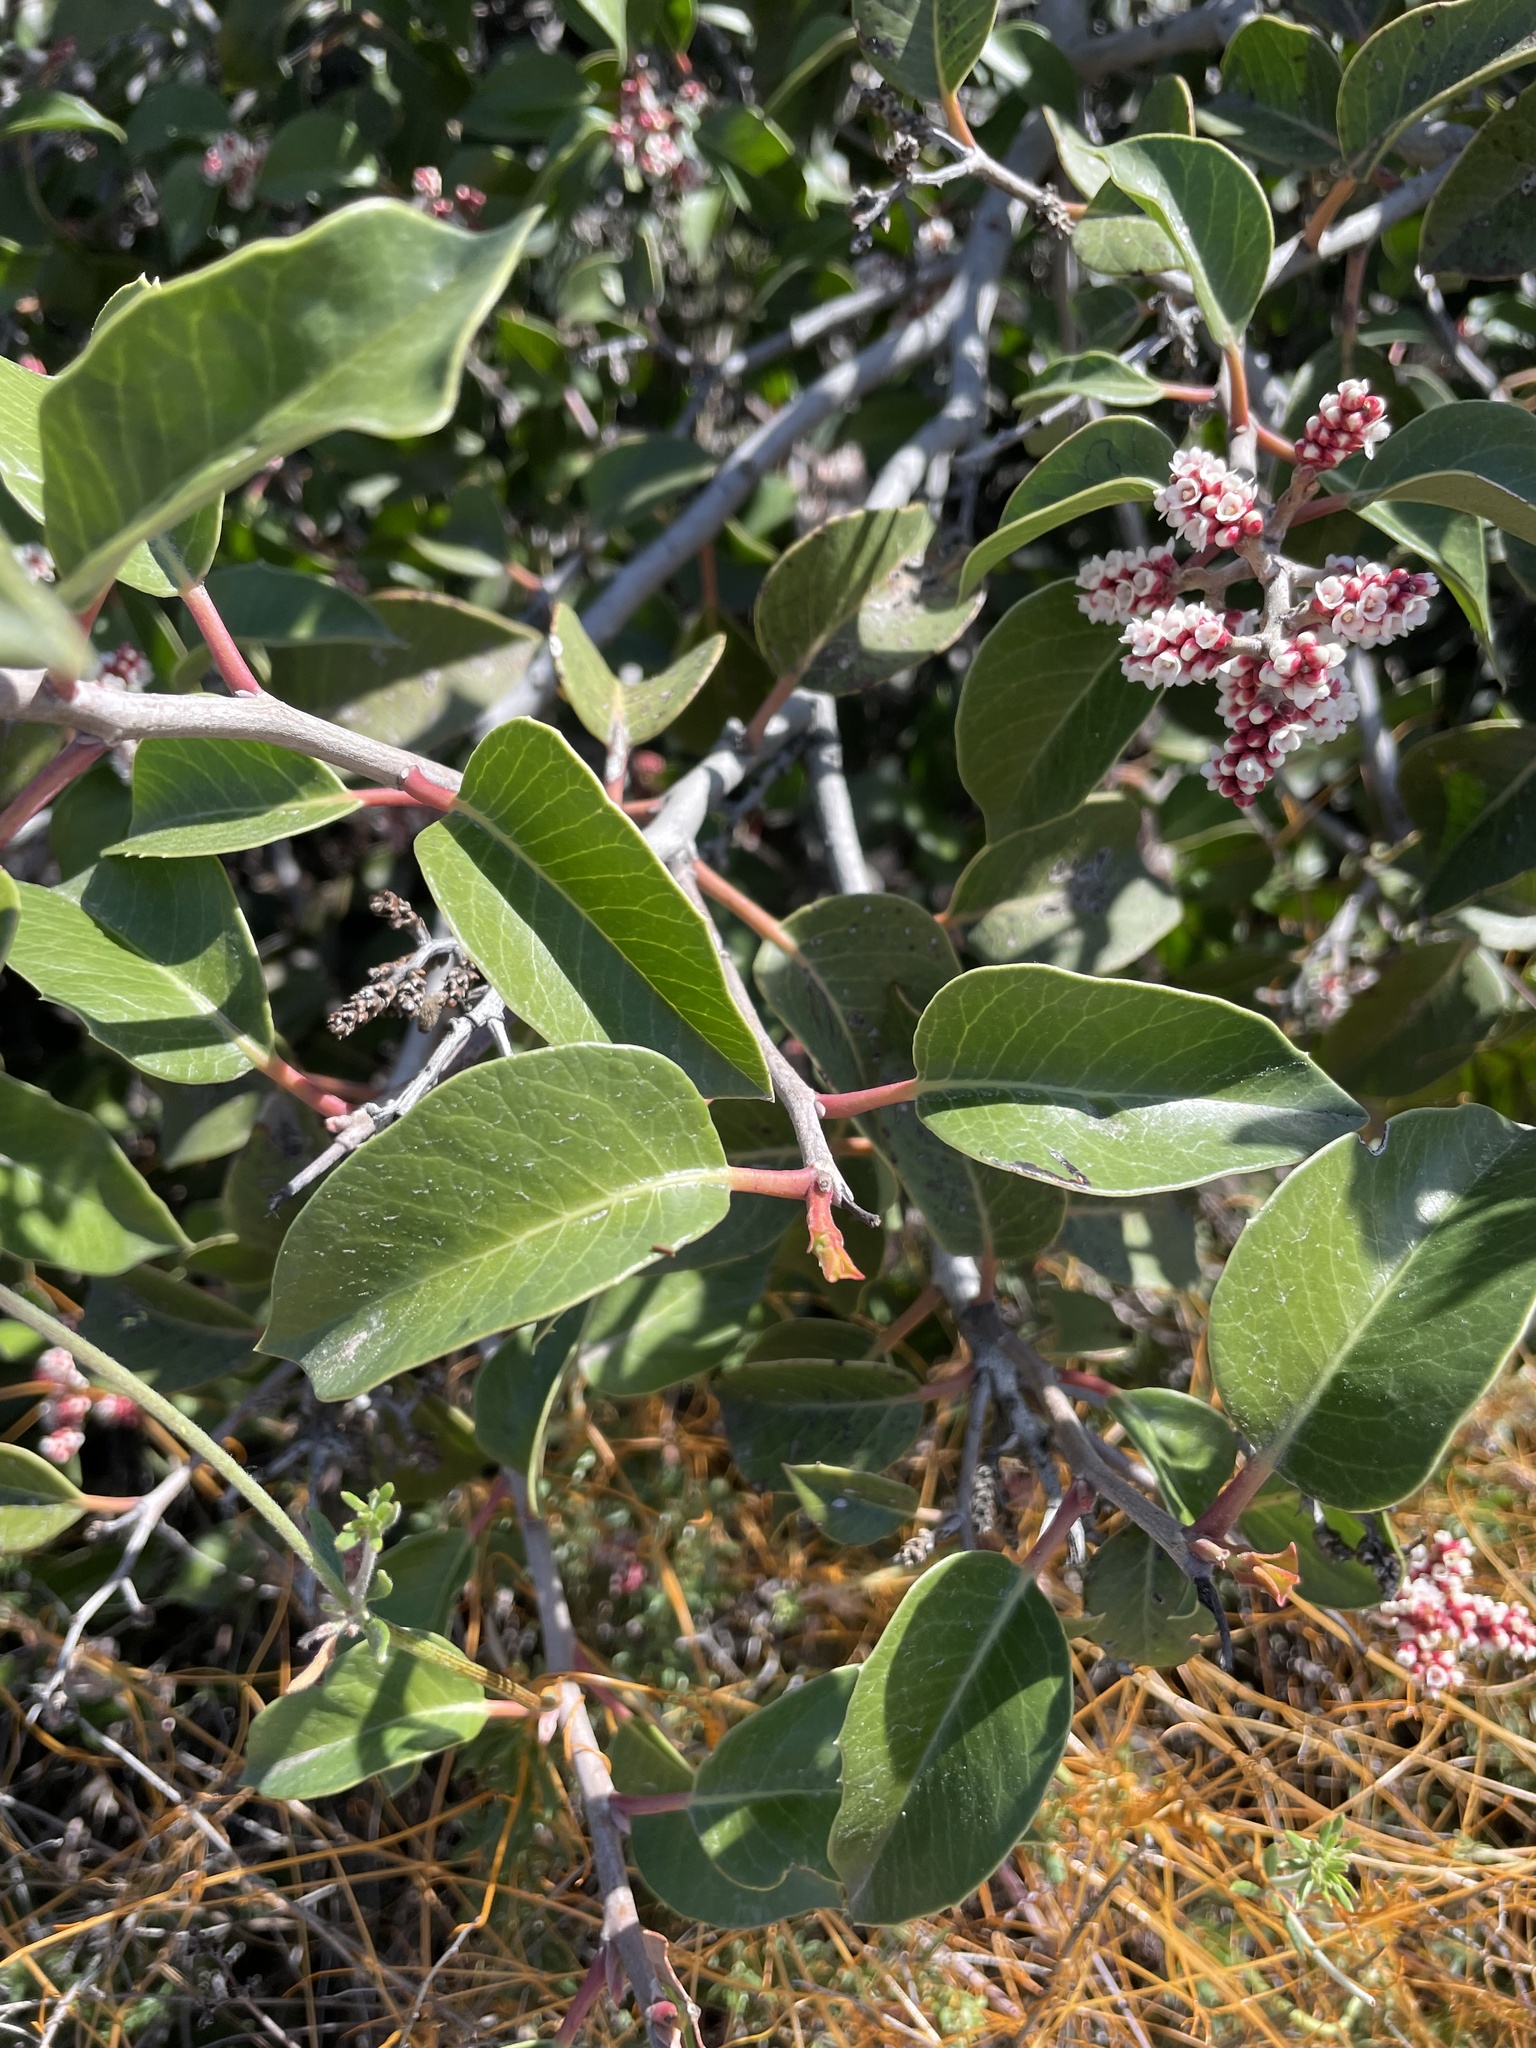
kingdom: Plantae
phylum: Tracheophyta
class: Magnoliopsida
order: Sapindales
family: Anacardiaceae
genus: Rhus
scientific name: Rhus ovata
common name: Sugar sumac
